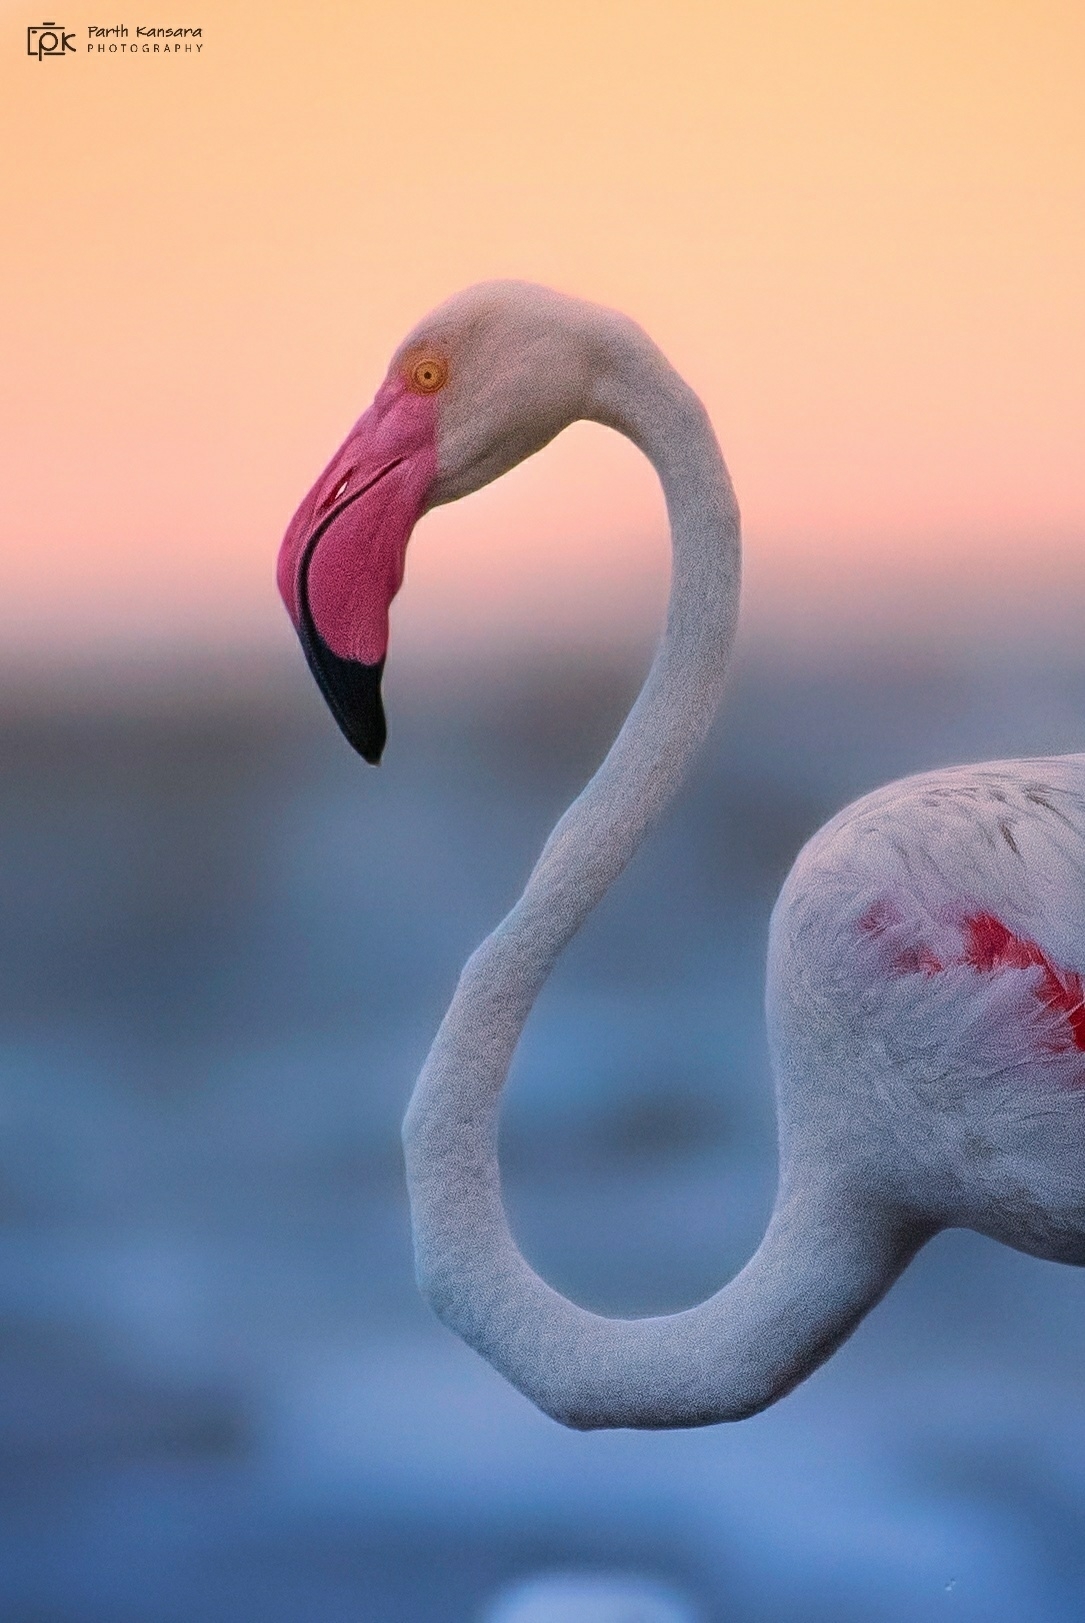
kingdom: Animalia
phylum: Chordata
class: Aves
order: Phoenicopteriformes
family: Phoenicopteridae
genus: Phoenicopterus
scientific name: Phoenicopterus roseus
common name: Greater flamingo
